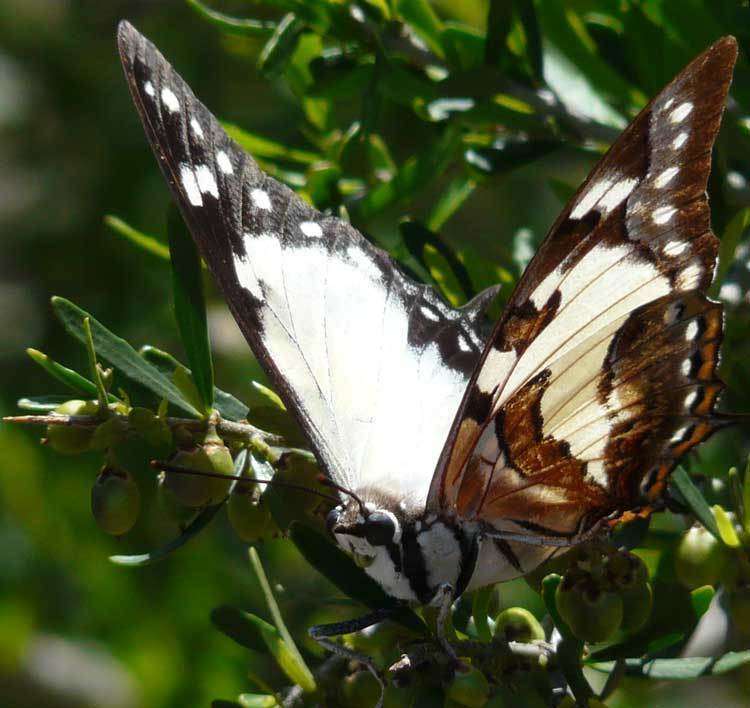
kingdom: Animalia
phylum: Arthropoda
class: Insecta
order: Lepidoptera
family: Nymphalidae
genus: Charaxes
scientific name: Charaxes
